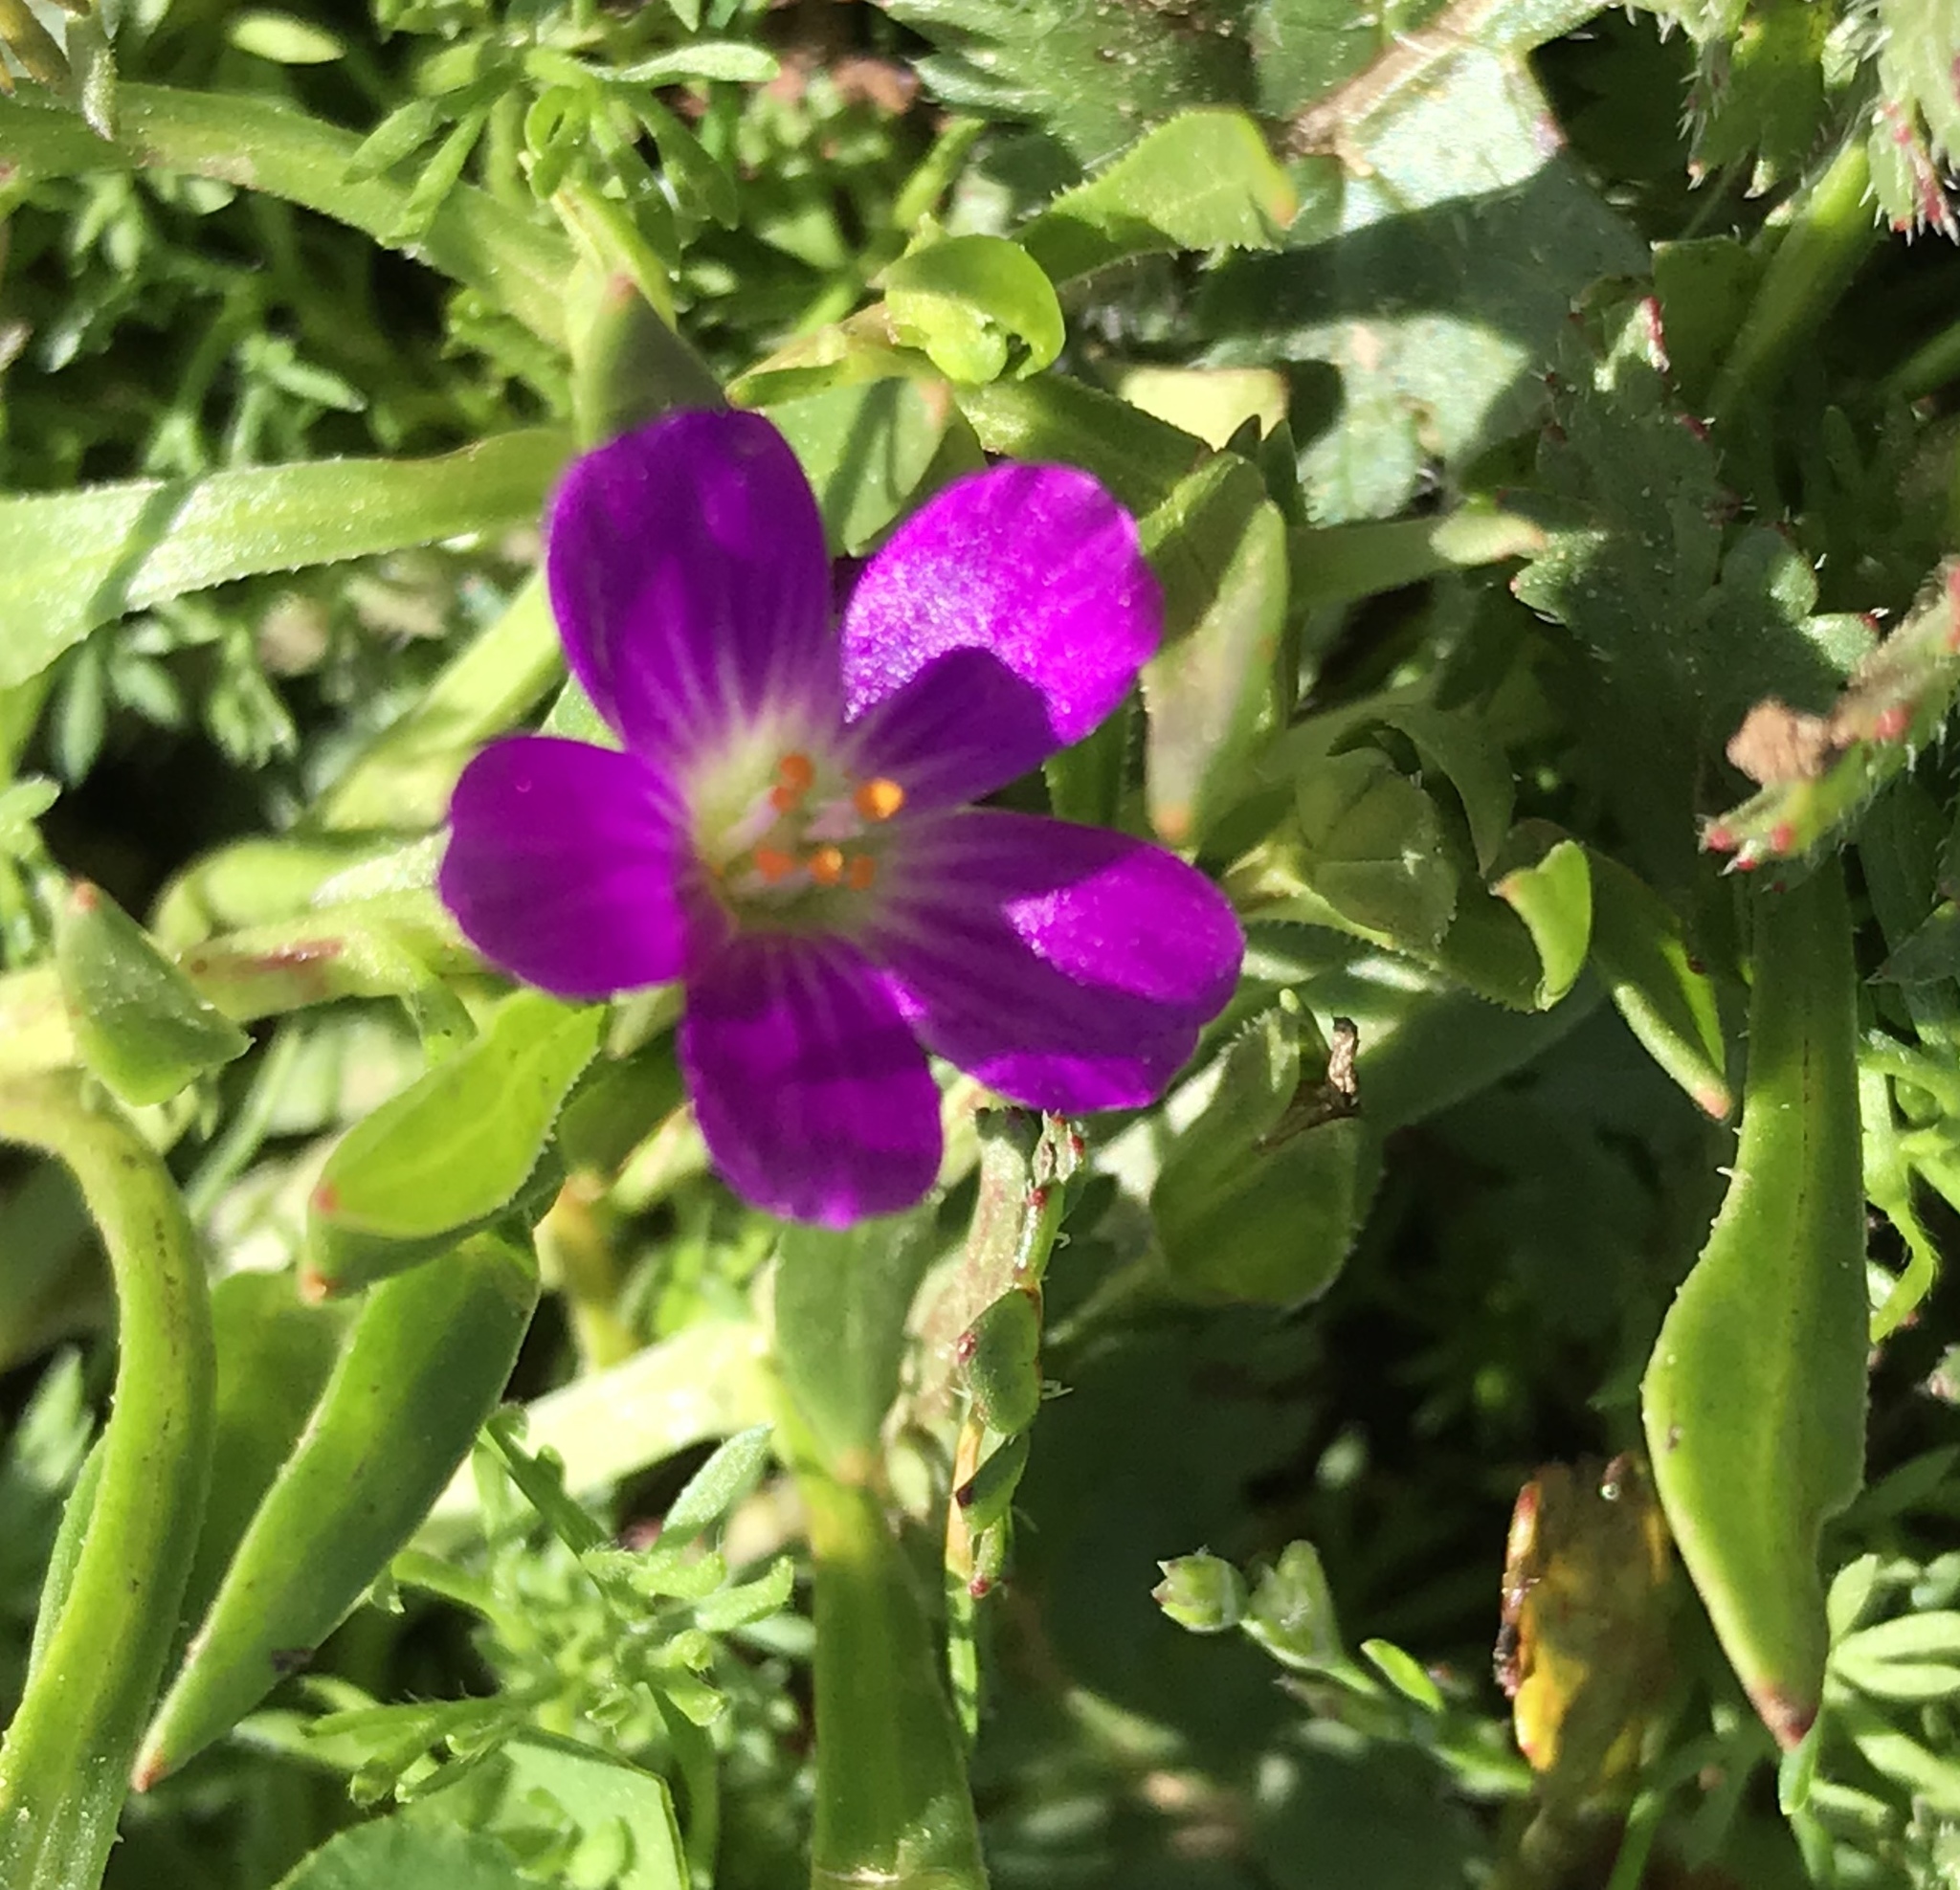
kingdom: Plantae
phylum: Tracheophyta
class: Magnoliopsida
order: Caryophyllales
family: Montiaceae
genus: Calandrinia
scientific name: Calandrinia menziesii
